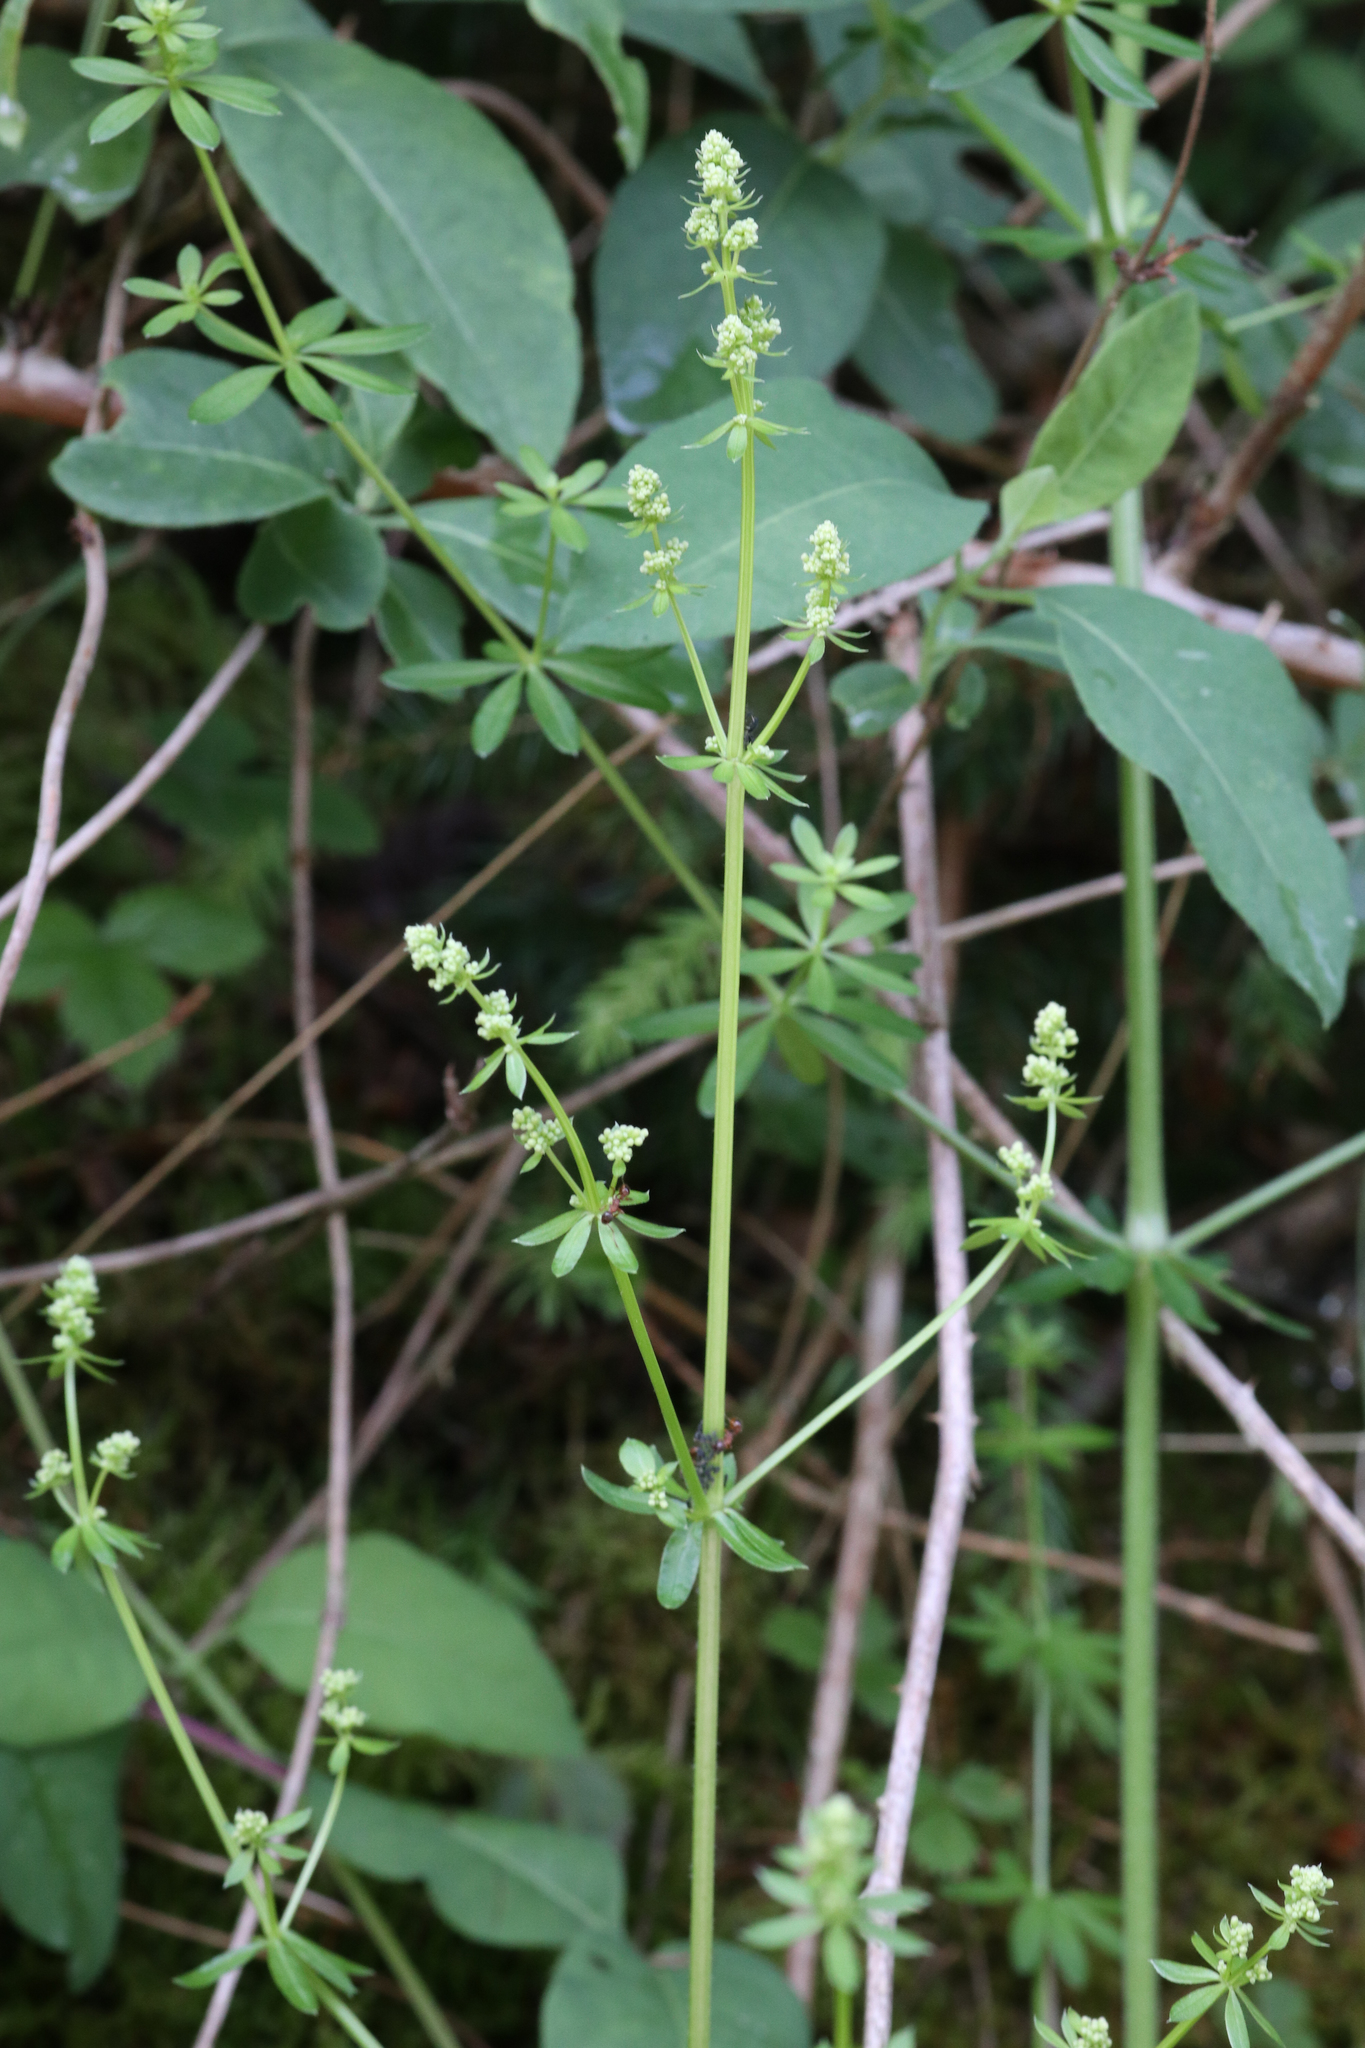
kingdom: Plantae
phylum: Tracheophyta
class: Magnoliopsida
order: Gentianales
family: Rubiaceae
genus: Galium
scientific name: Galium mollugo
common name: Hedge bedstraw
